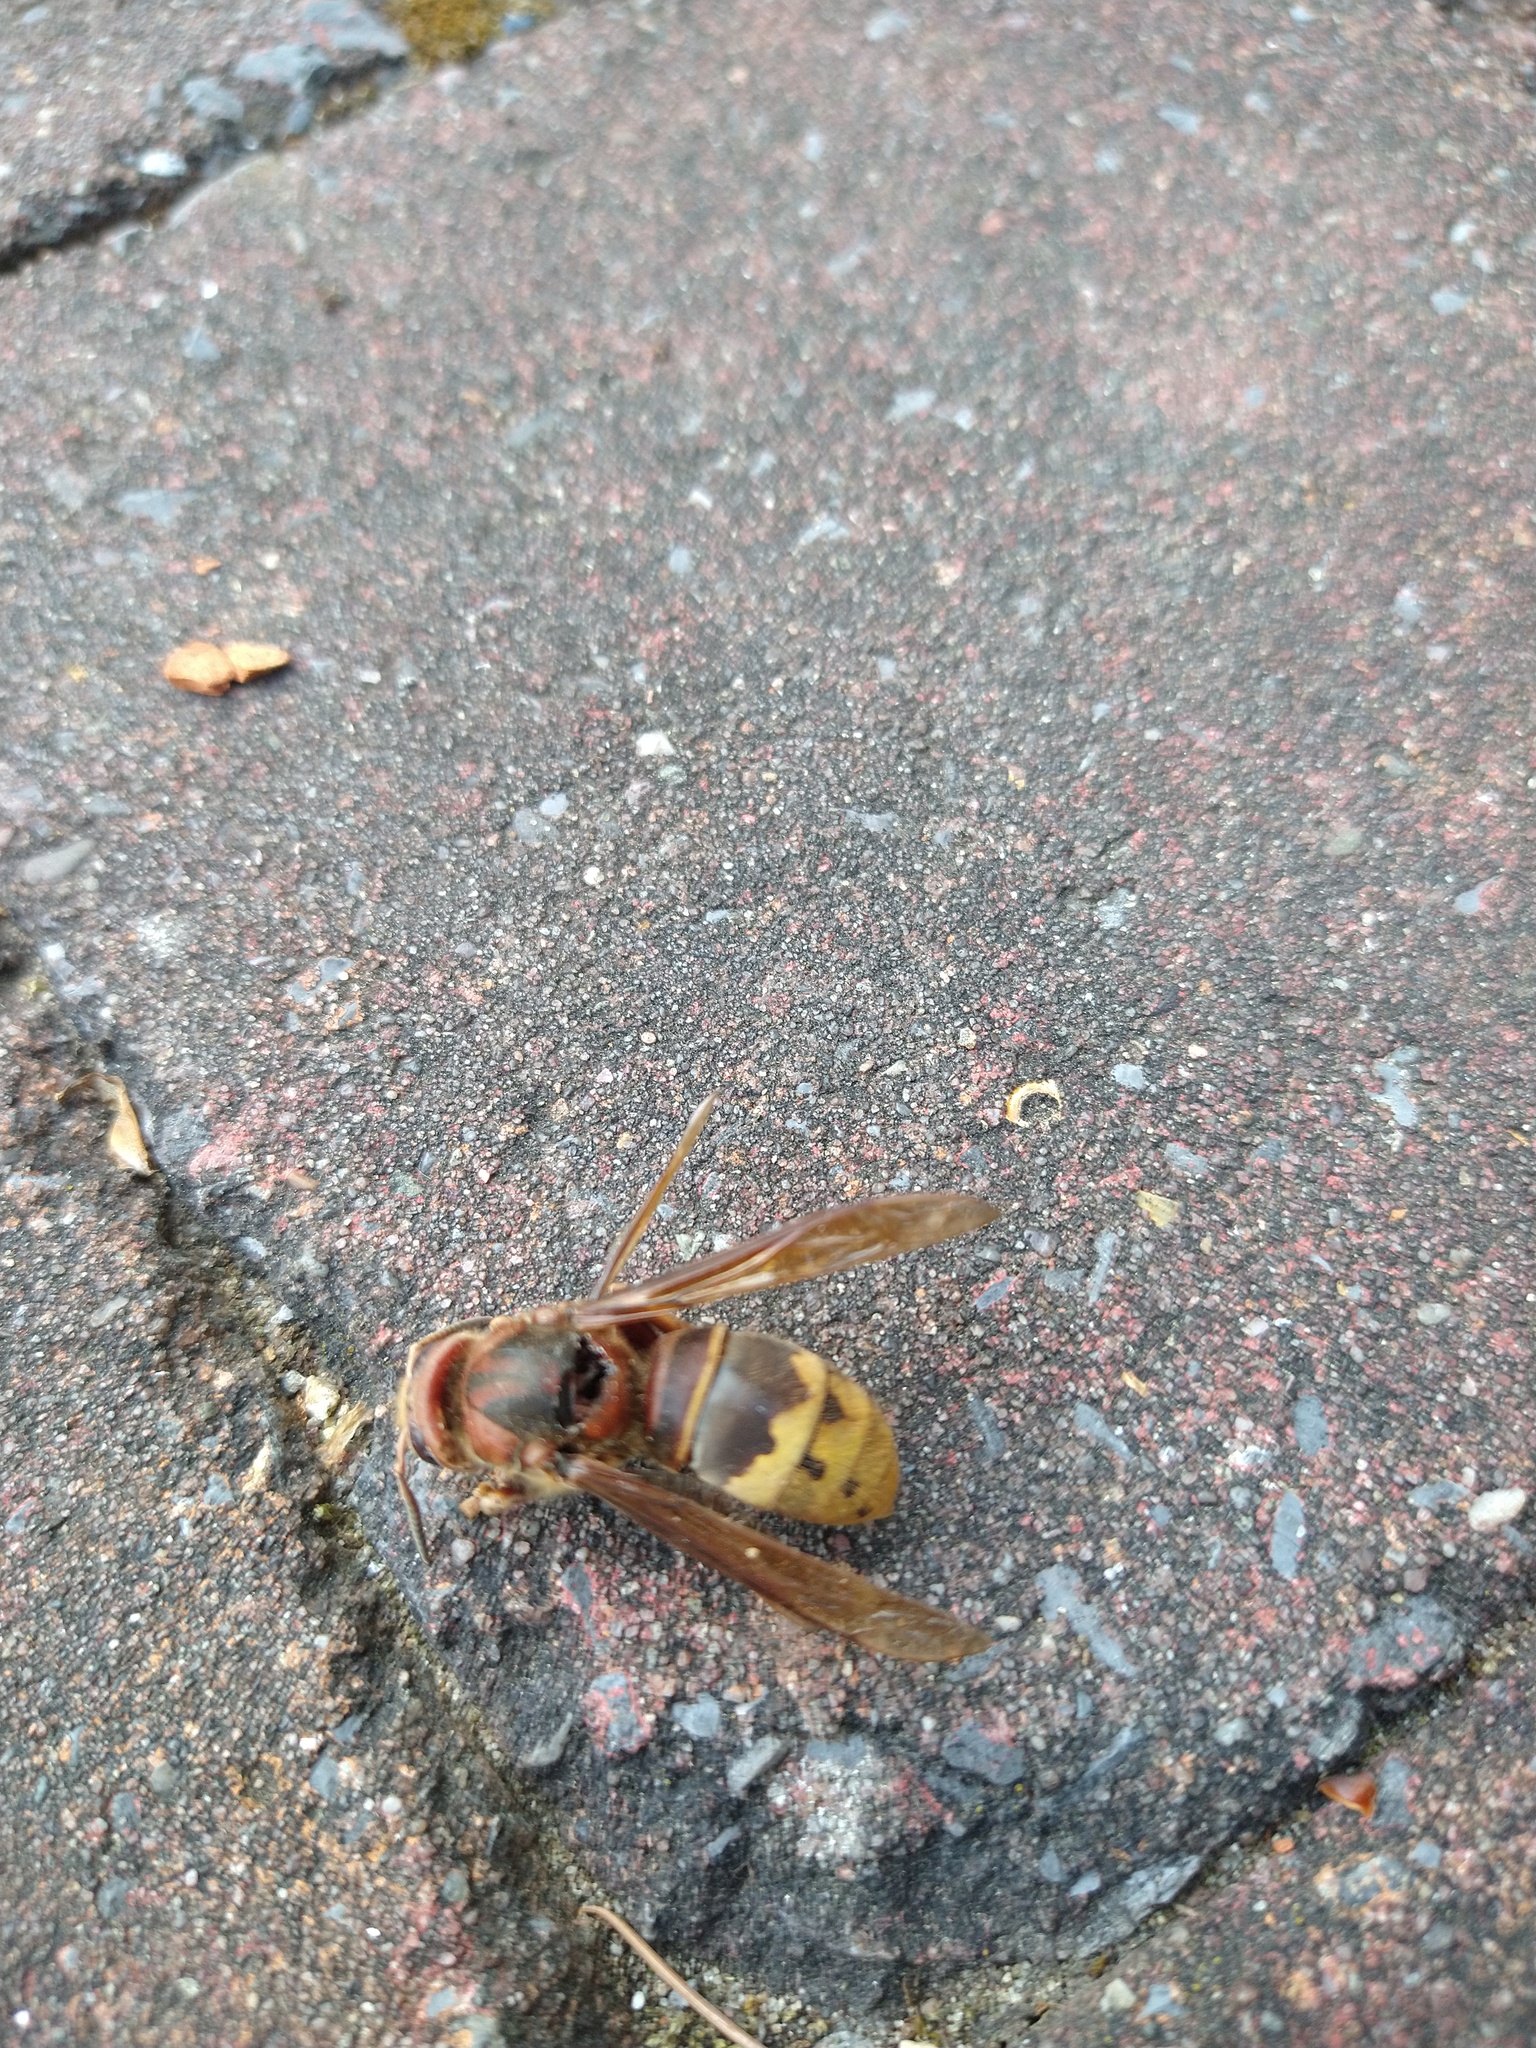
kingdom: Animalia
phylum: Arthropoda
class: Insecta
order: Hymenoptera
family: Vespidae
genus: Vespa
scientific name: Vespa crabro
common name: Hornet
